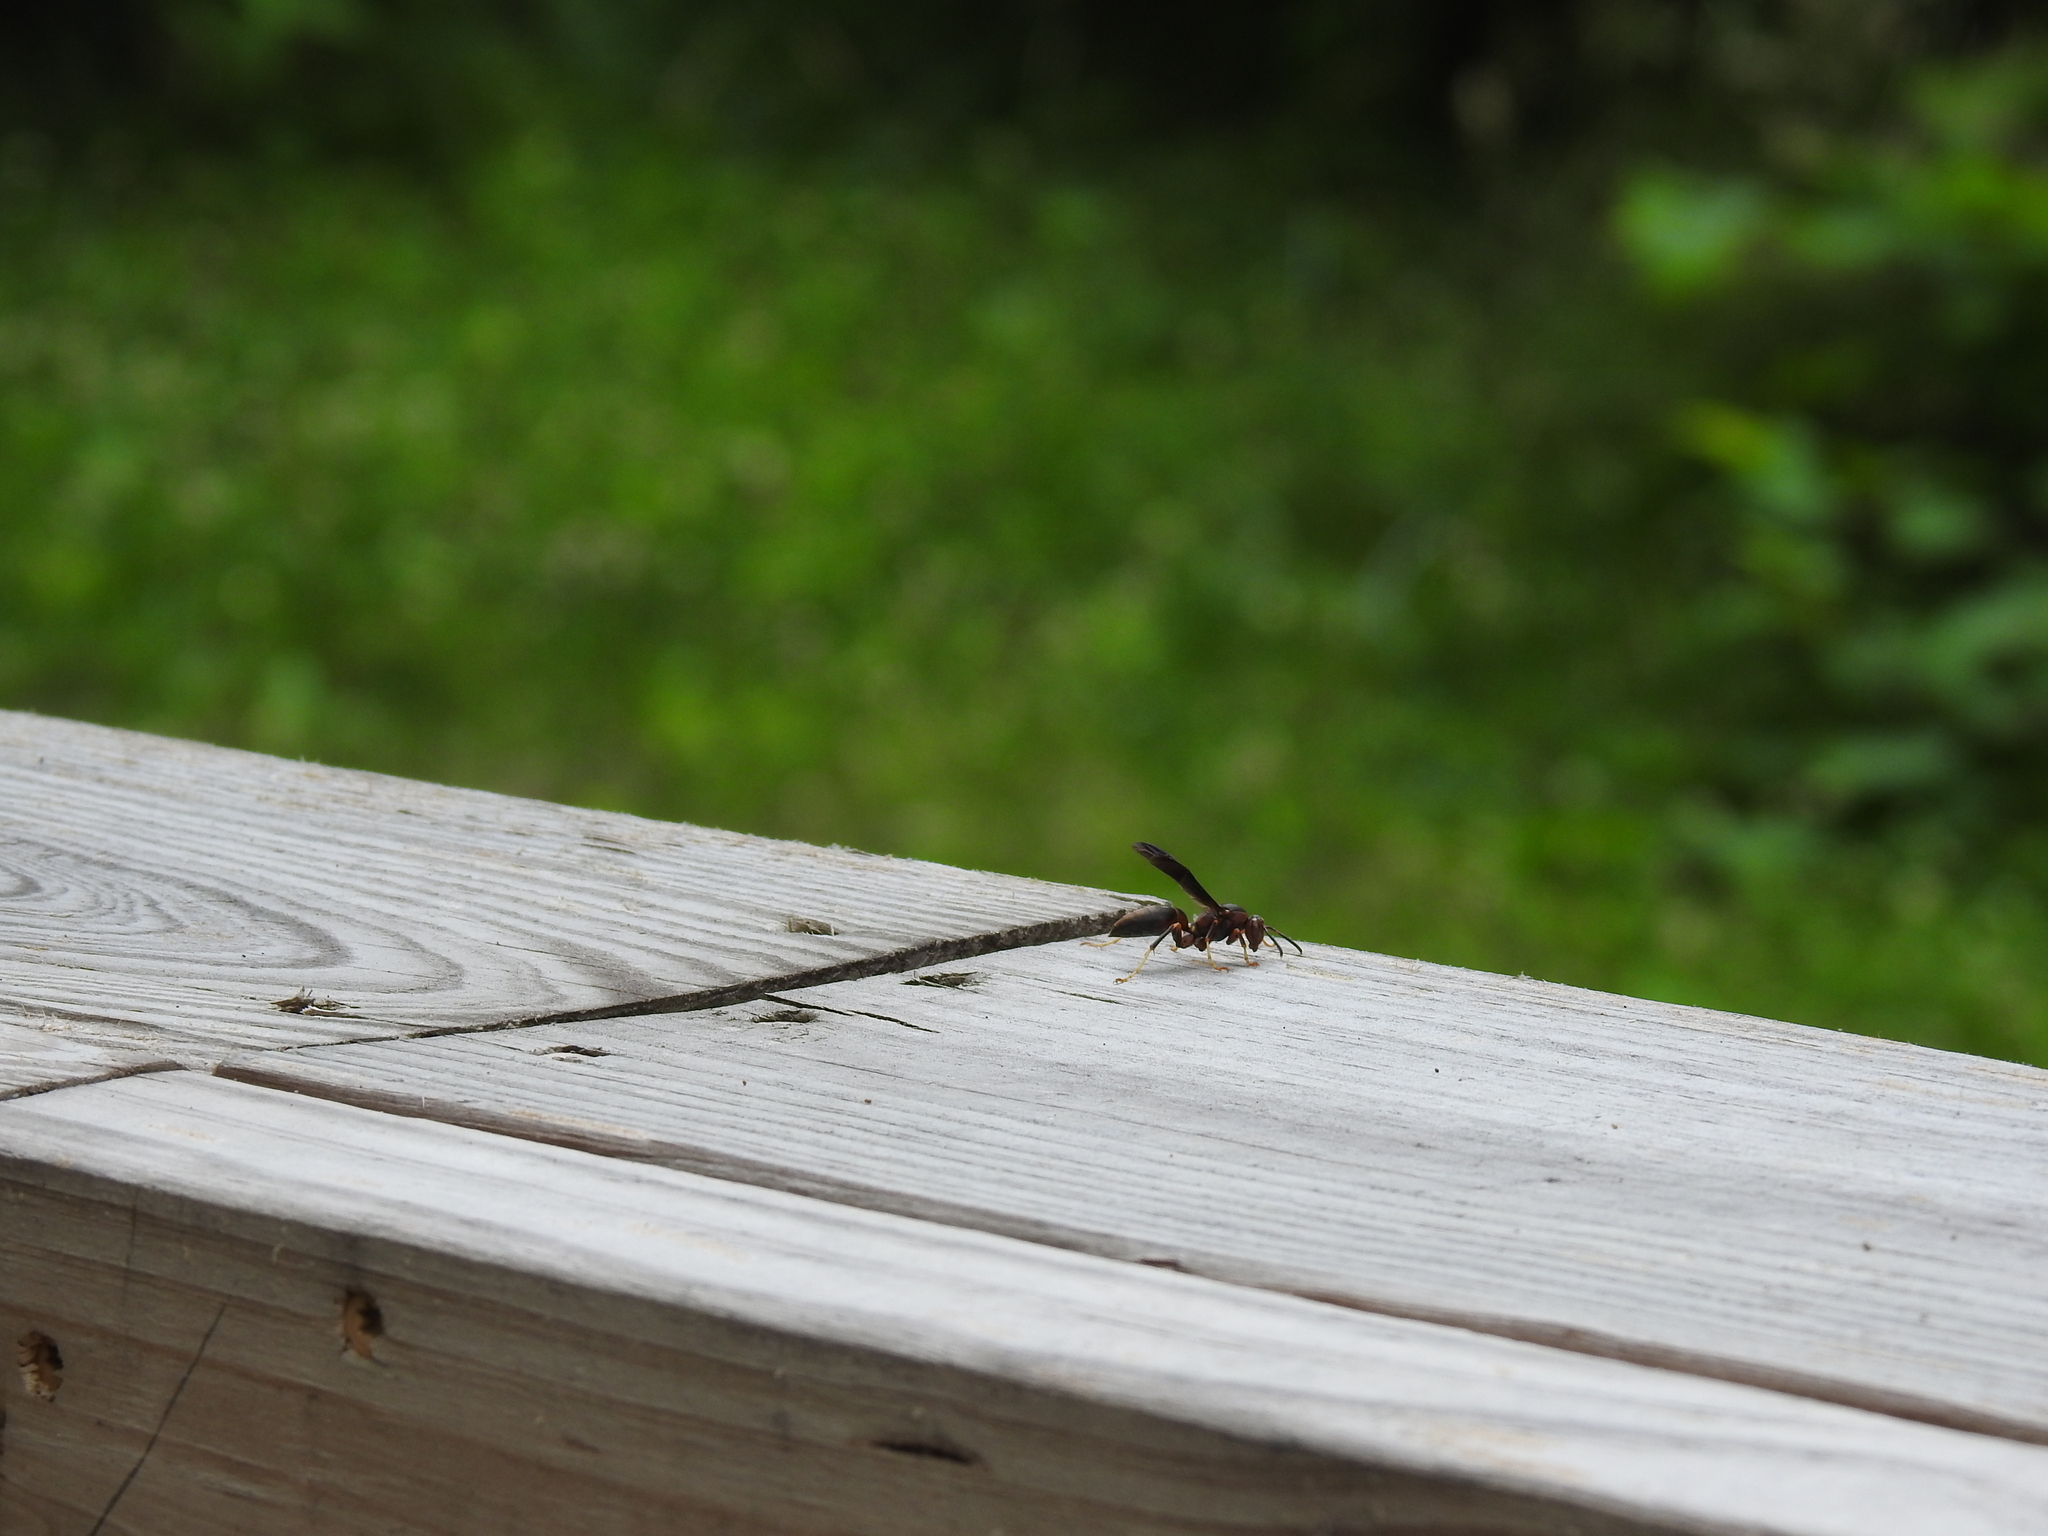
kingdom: Animalia
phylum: Arthropoda
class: Insecta
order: Hymenoptera
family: Eumenidae
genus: Polistes
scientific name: Polistes metricus
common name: Metric paper wasp
